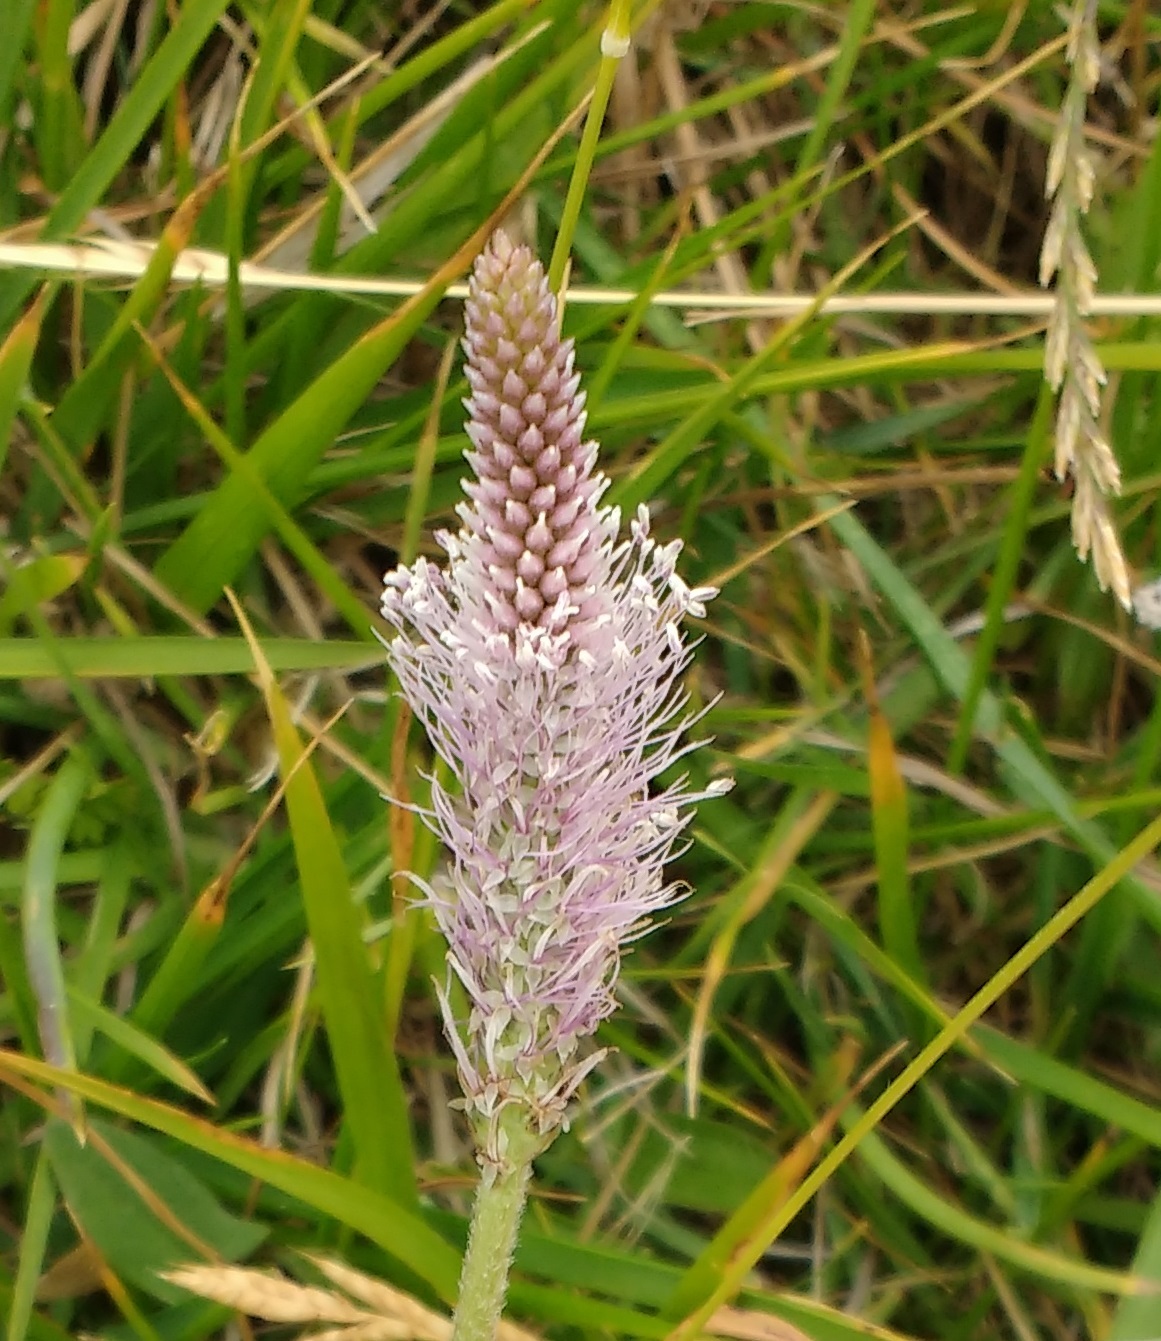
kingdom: Plantae
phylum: Tracheophyta
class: Magnoliopsida
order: Lamiales
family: Plantaginaceae
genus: Plantago
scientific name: Plantago media
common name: Hoary plantain
